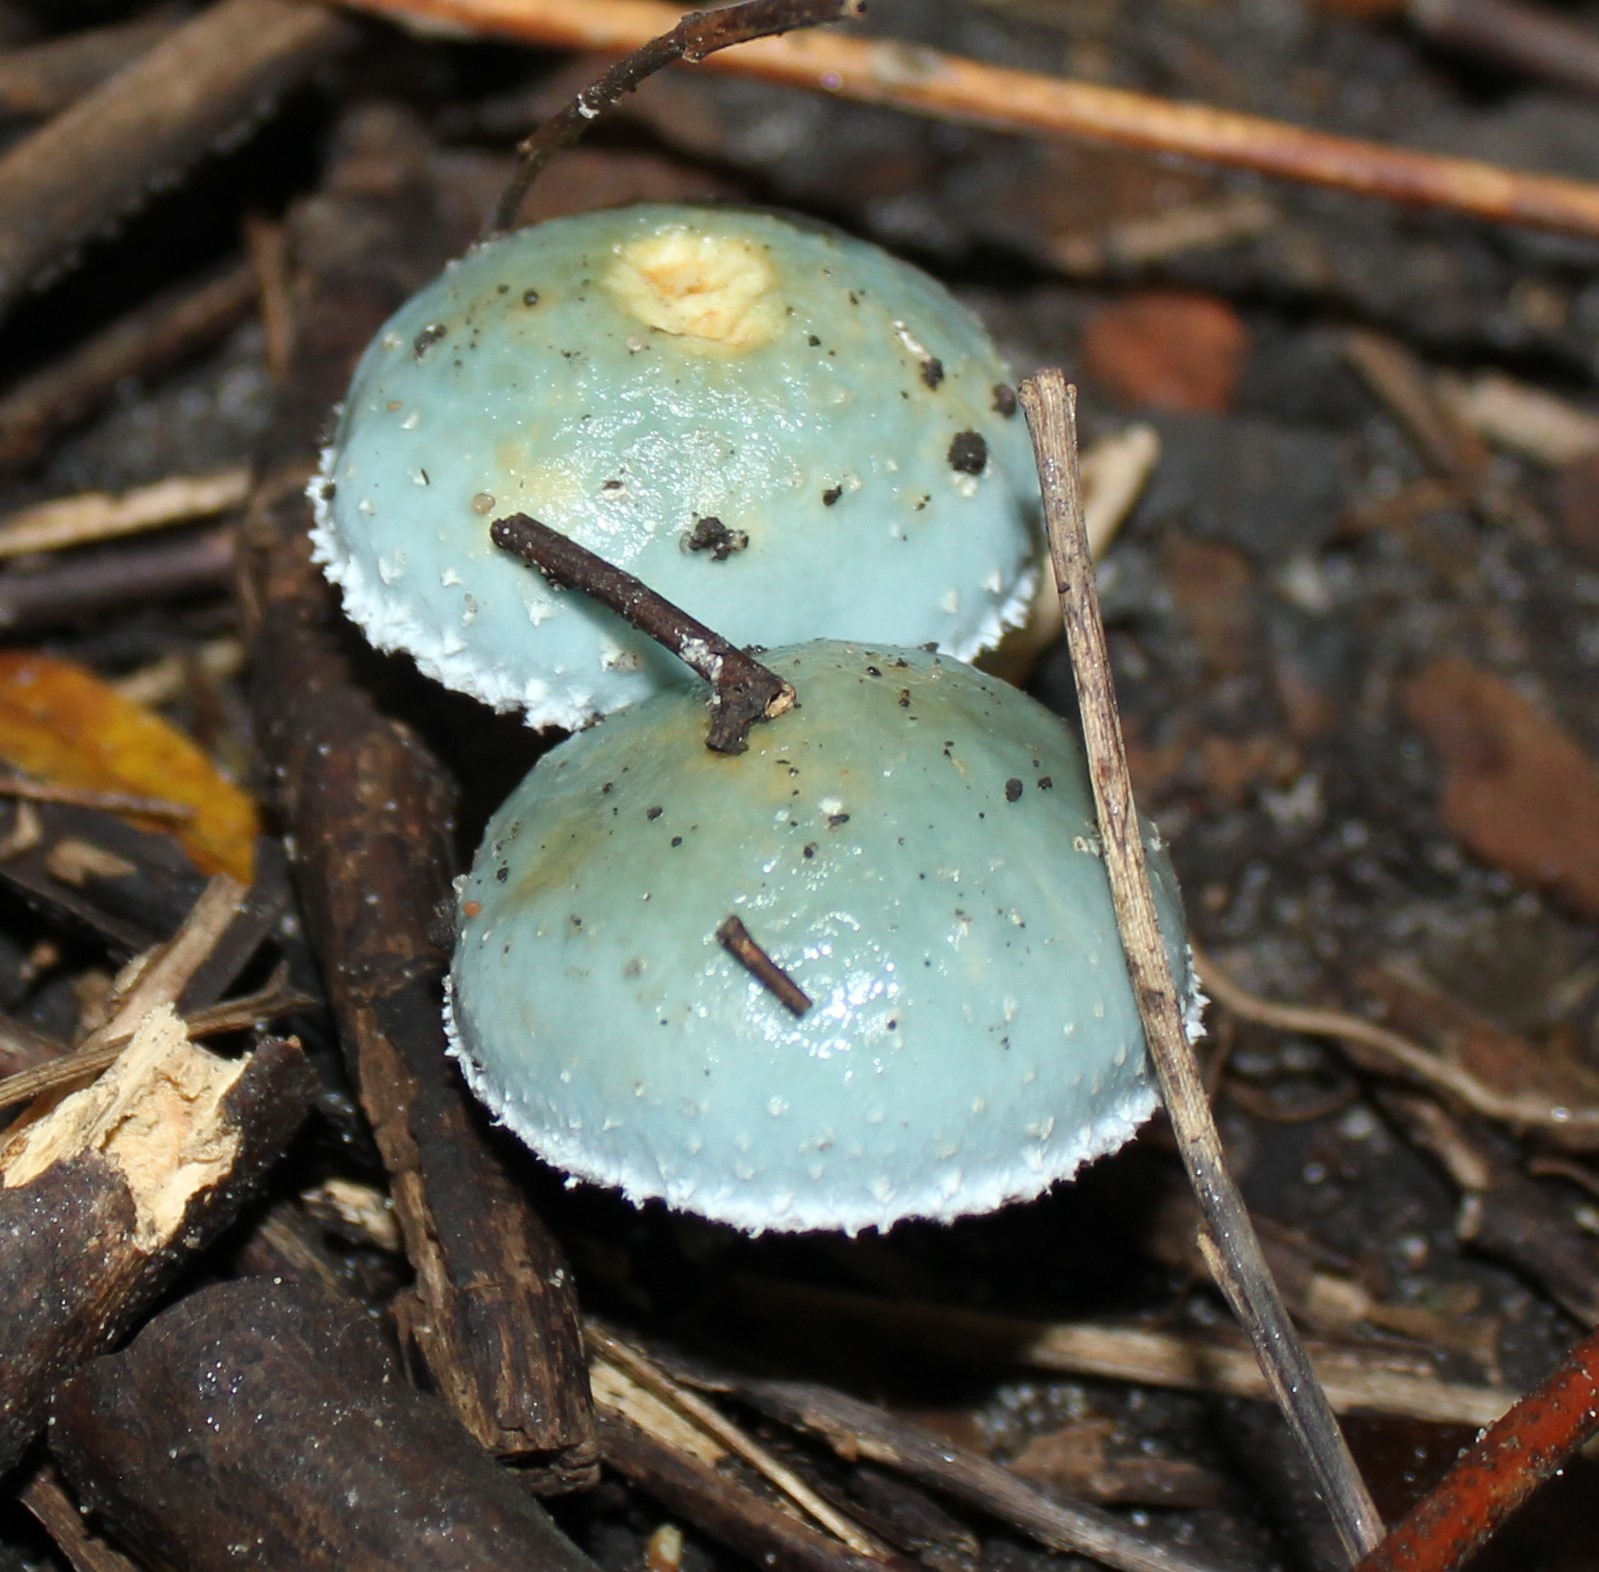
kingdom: Fungi
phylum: Basidiomycota
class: Agaricomycetes
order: Agaricales
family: Strophariaceae
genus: Stropharia
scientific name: Stropharia aeruginosa
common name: Verdigris roundhead
